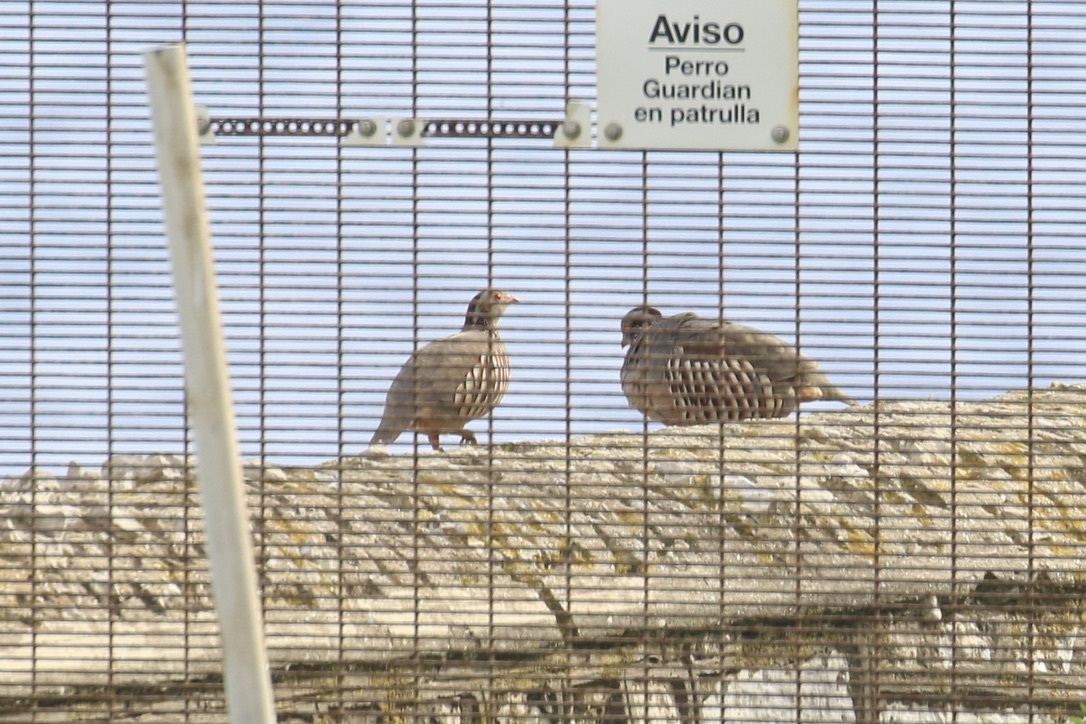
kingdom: Animalia
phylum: Chordata
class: Aves
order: Galliformes
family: Phasianidae
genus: Alectoris
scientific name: Alectoris barbara
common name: Barbary partridge
